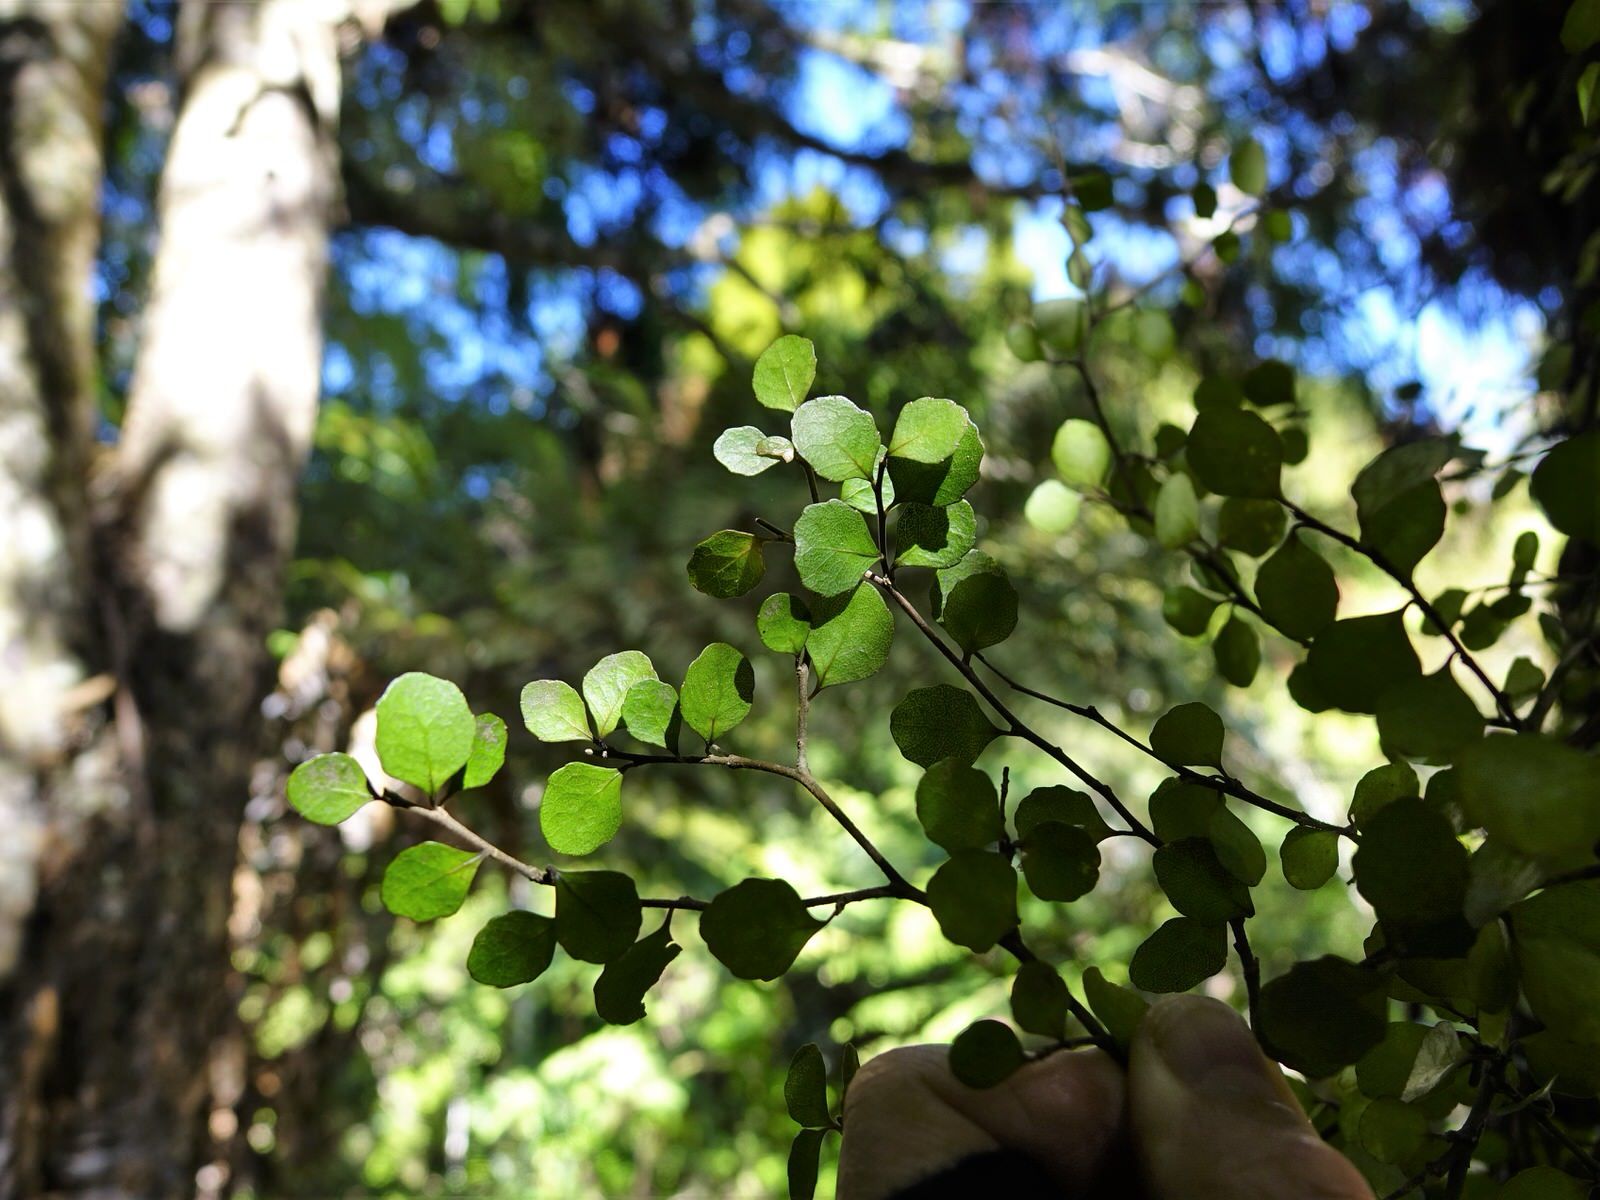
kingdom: Plantae
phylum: Tracheophyta
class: Magnoliopsida
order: Malpighiales
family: Violaceae
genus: Melicytus
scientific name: Melicytus micranthus
